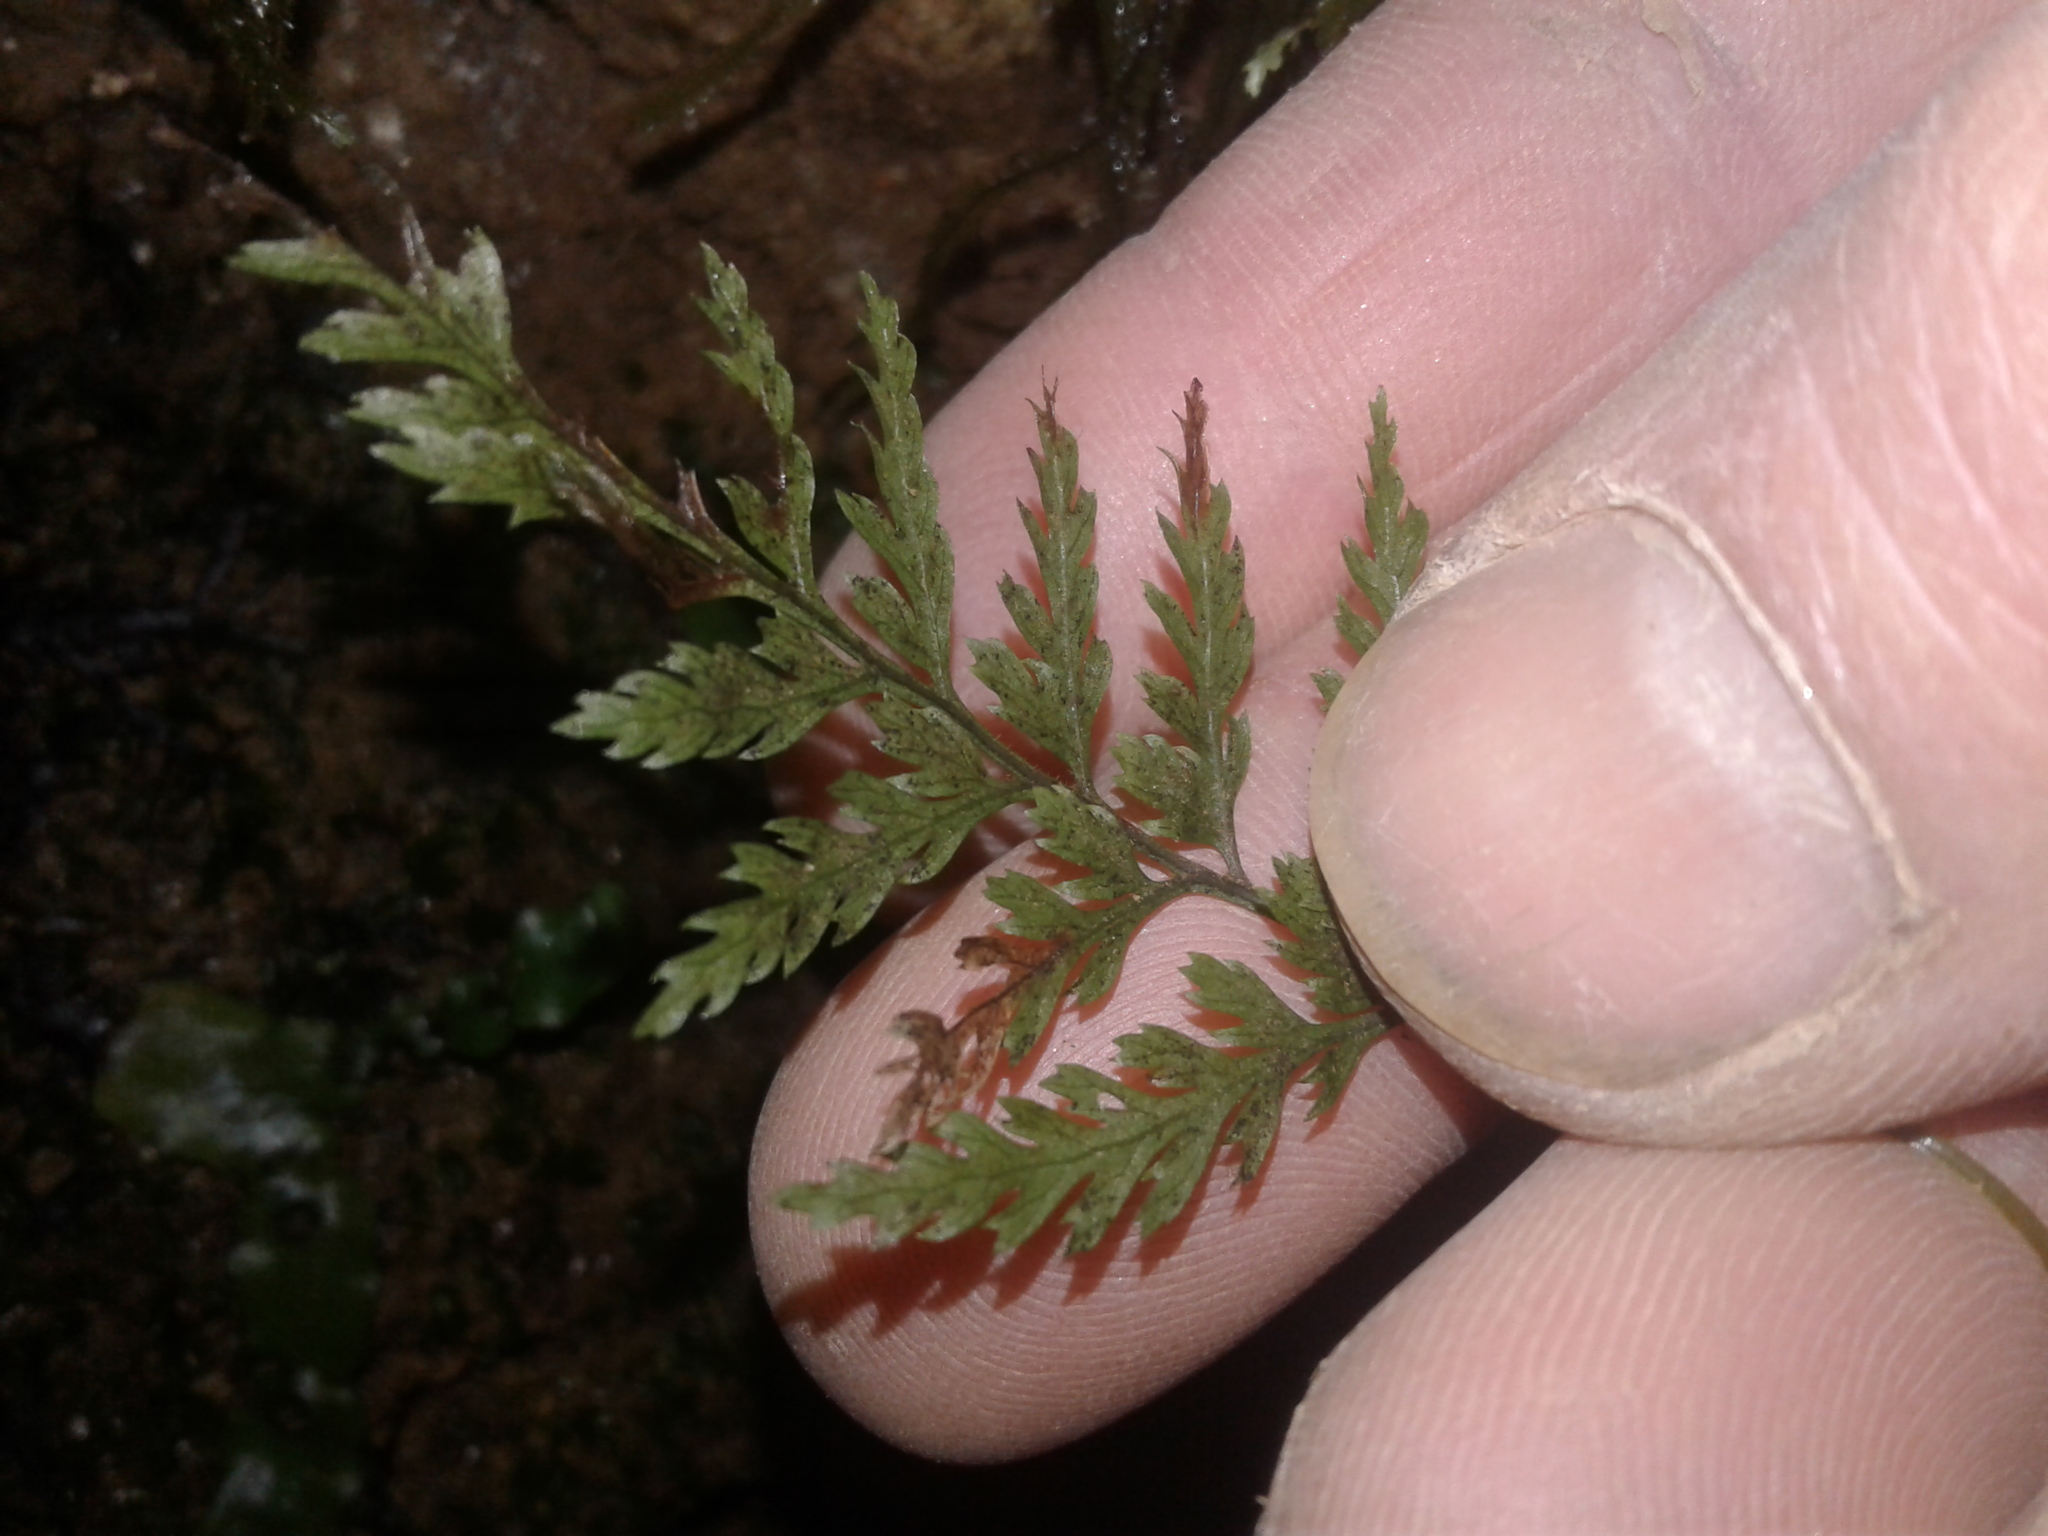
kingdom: Plantae
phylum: Tracheophyta
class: Polypodiopsida
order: Polypodiales
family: Dryopteridaceae
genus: Parapolystichum
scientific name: Parapolystichum glabellum
